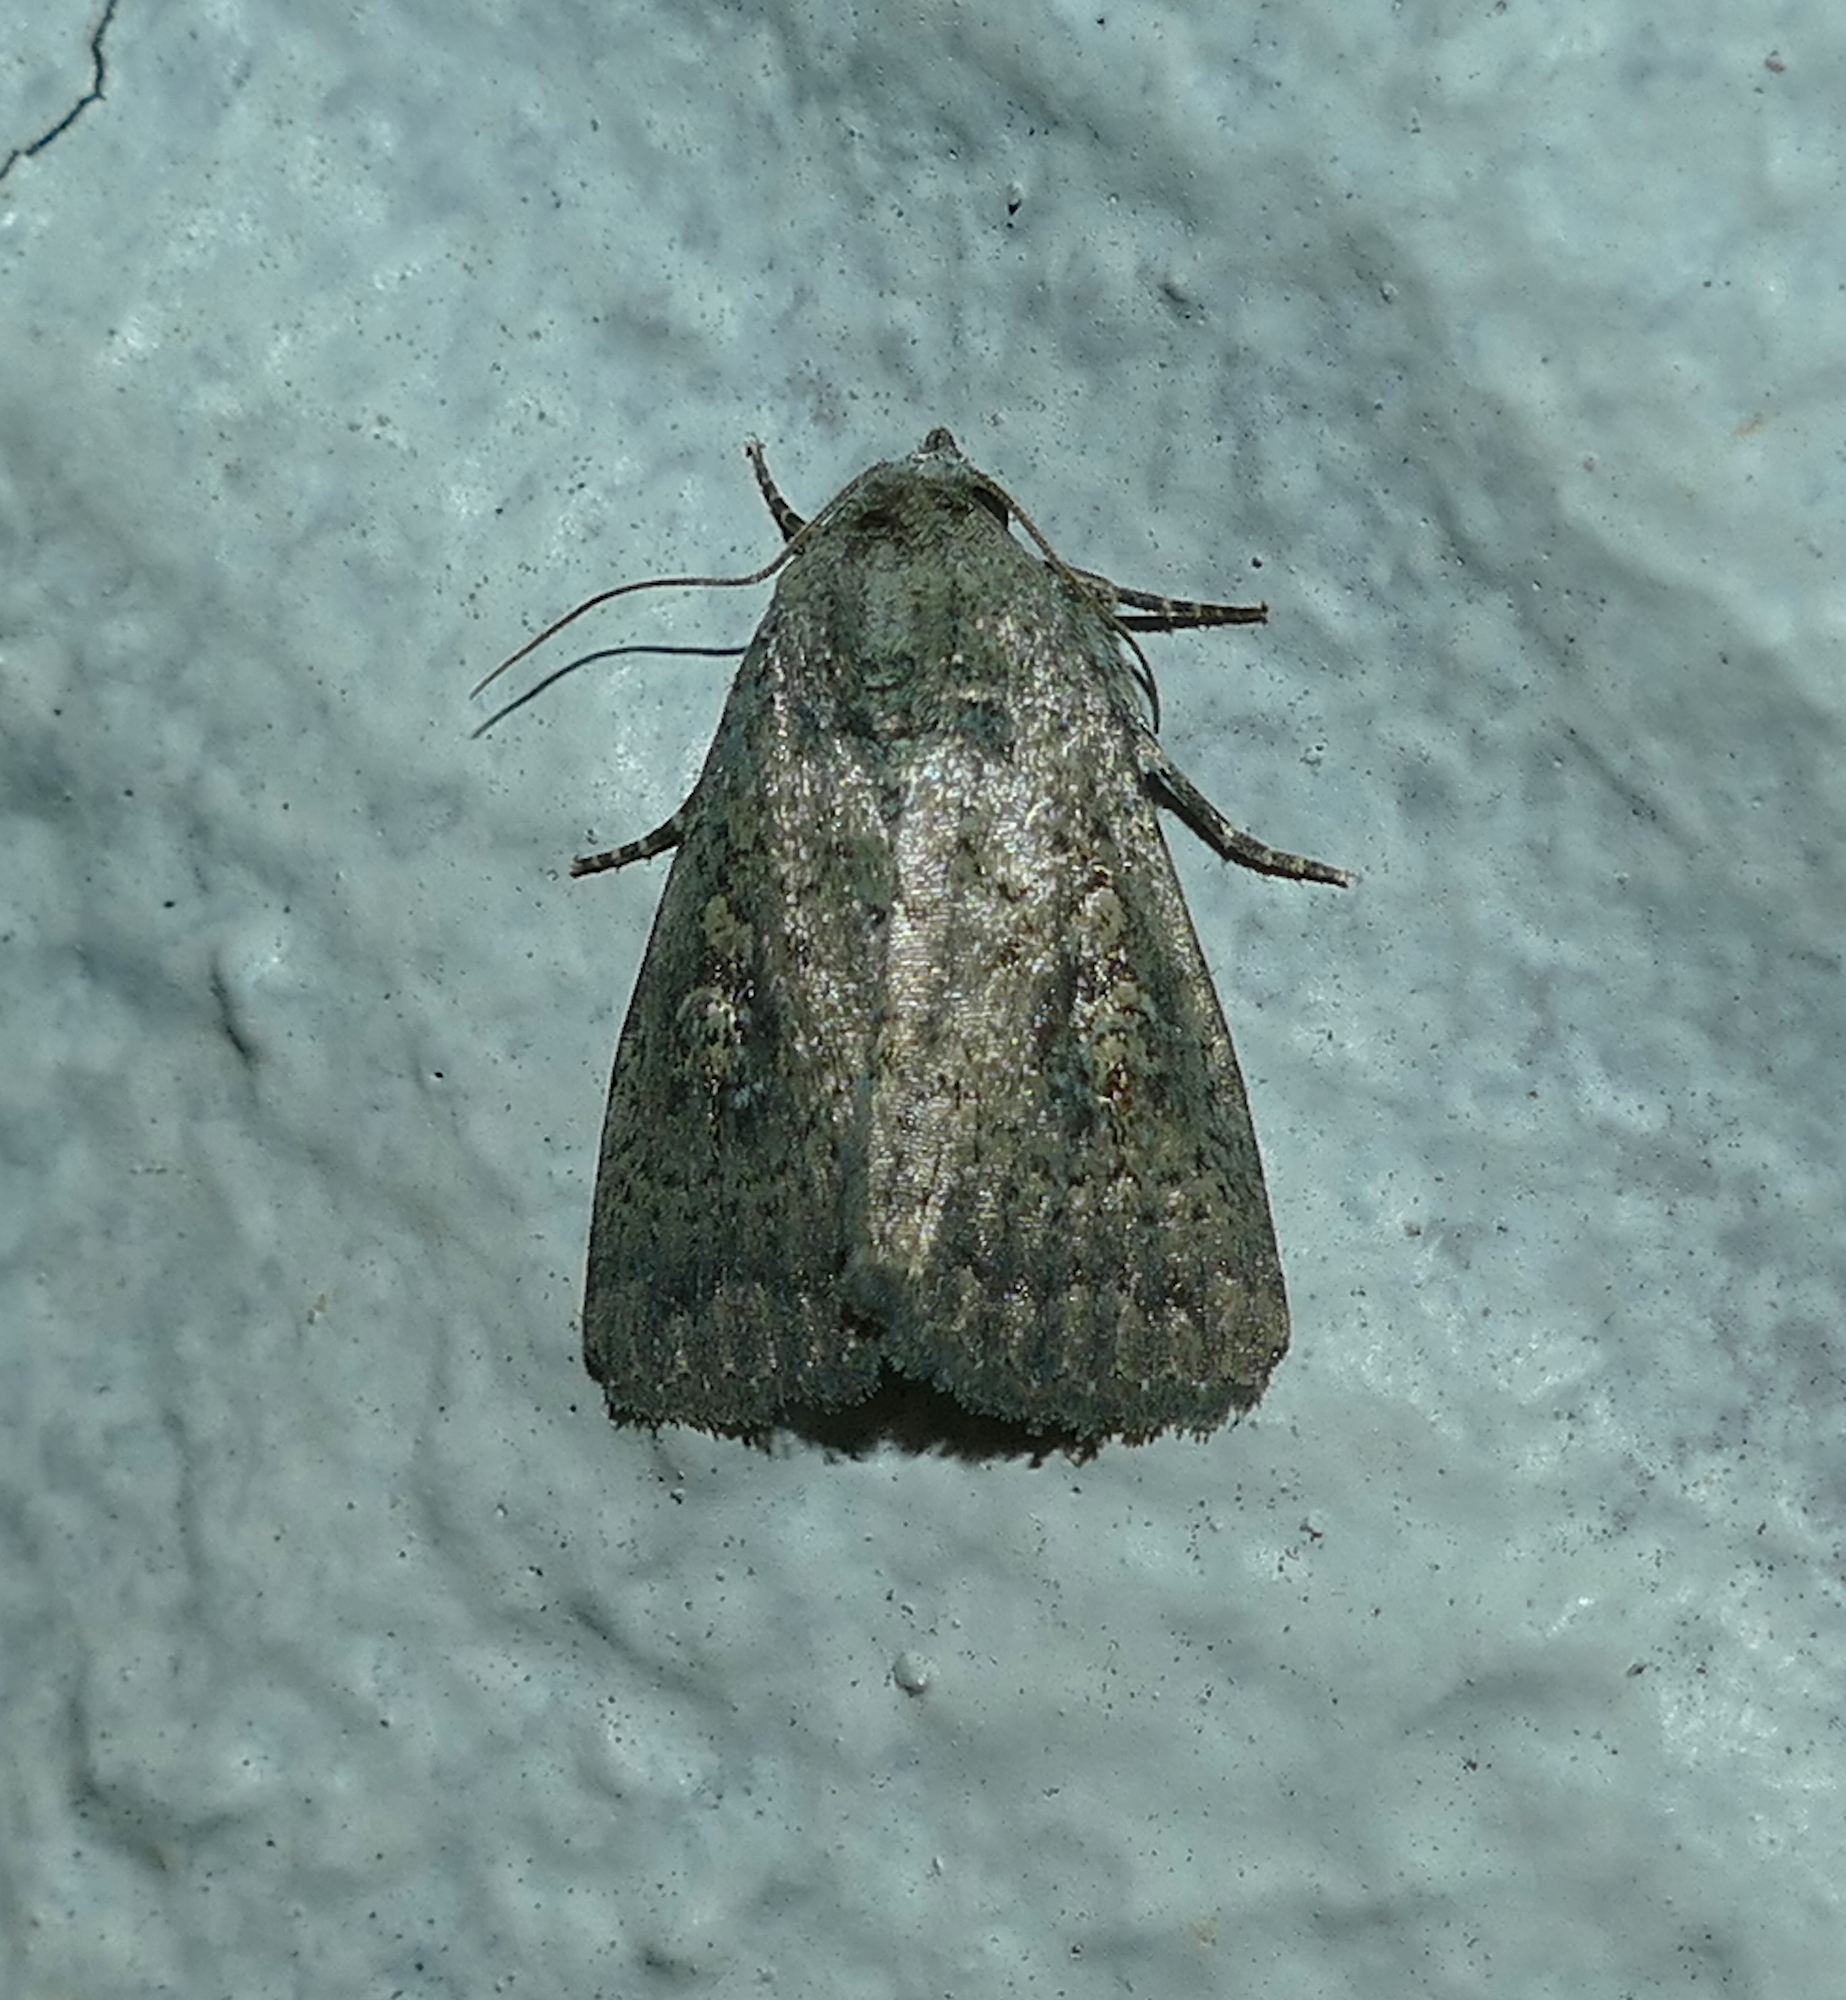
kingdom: Animalia
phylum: Arthropoda
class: Insecta
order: Lepidoptera
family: Noctuidae
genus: Condica
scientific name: Condica sutor
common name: Cobbler moth
